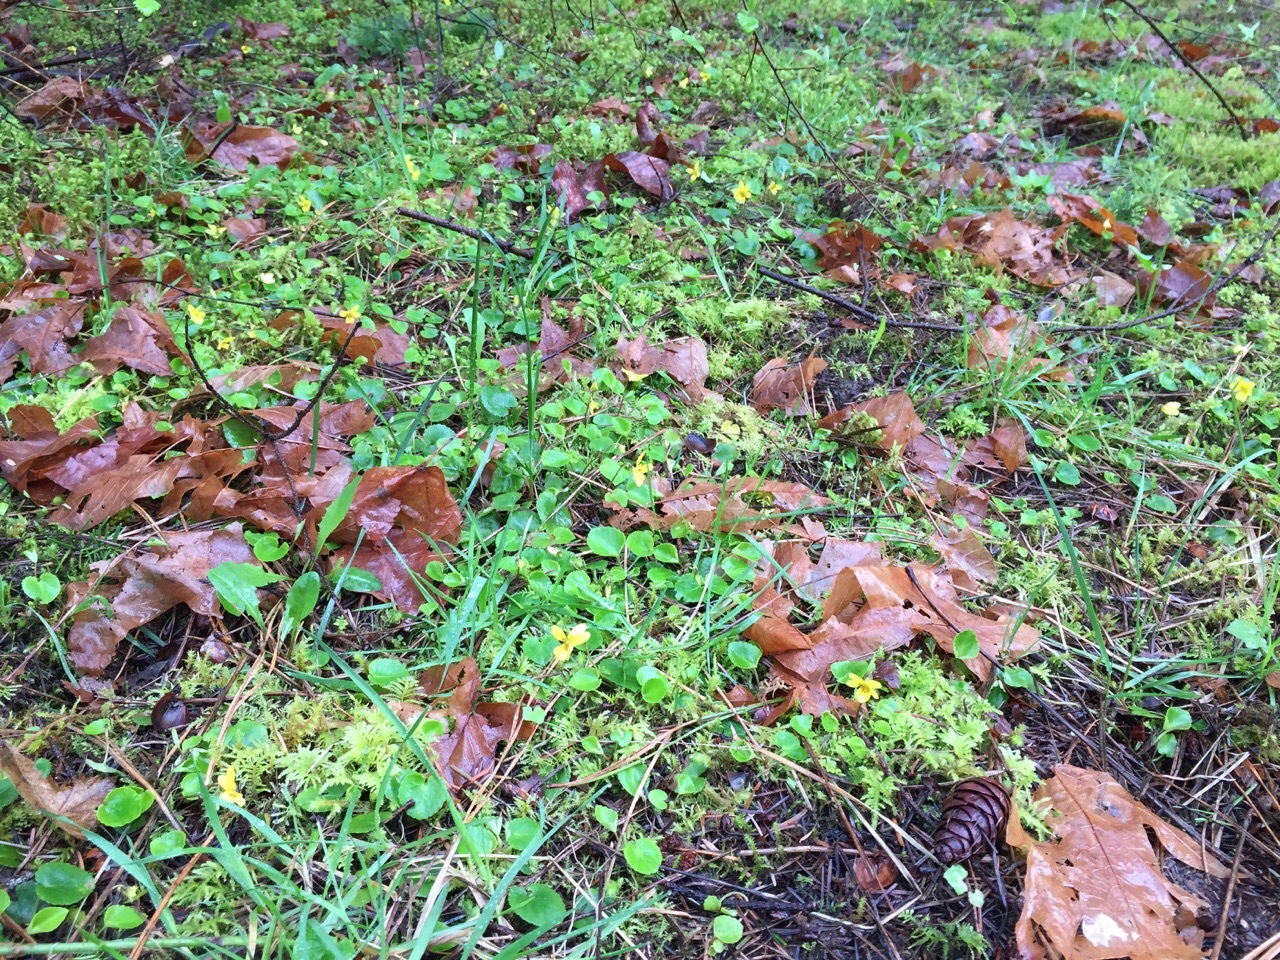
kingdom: Plantae
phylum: Tracheophyta
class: Magnoliopsida
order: Malpighiales
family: Violaceae
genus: Viola
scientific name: Viola sempervirens
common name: Evergreen violet
